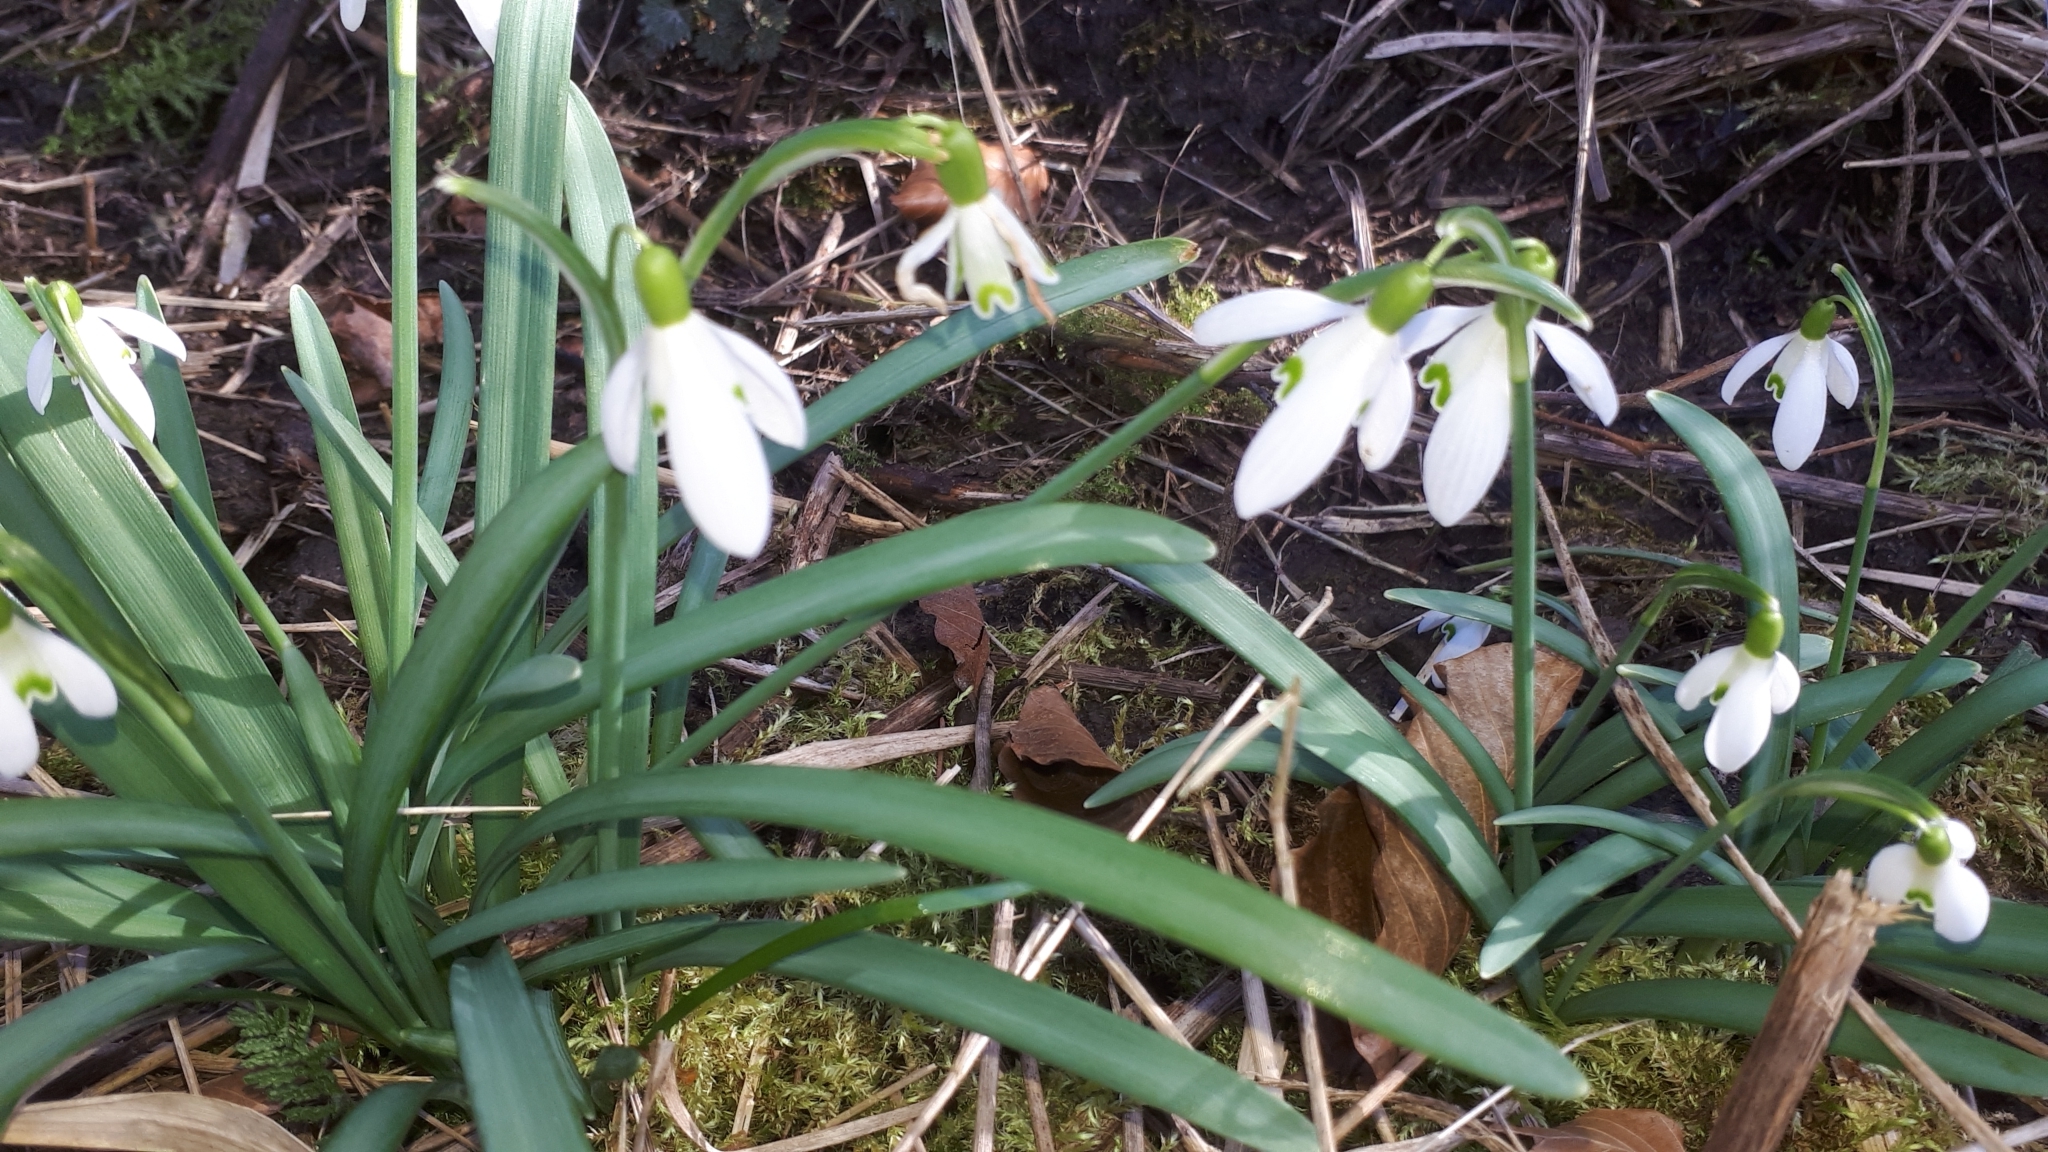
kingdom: Plantae
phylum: Tracheophyta
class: Liliopsida
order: Asparagales
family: Amaryllidaceae
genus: Galanthus
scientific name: Galanthus nivalis
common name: Snowdrop
